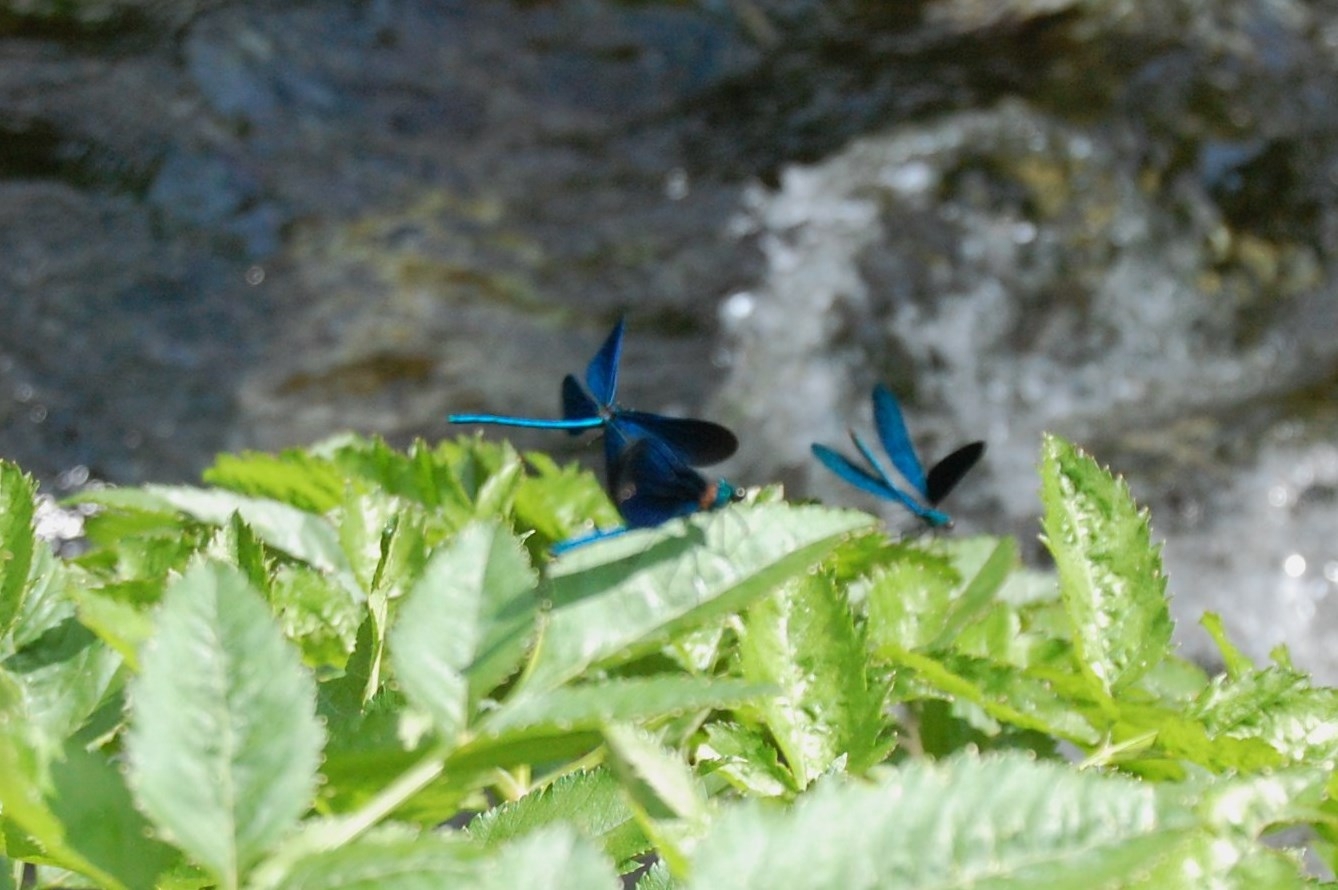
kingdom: Animalia
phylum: Arthropoda
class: Insecta
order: Odonata
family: Calopterygidae
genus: Calopteryx
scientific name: Calopteryx virgo
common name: Beautiful demoiselle
